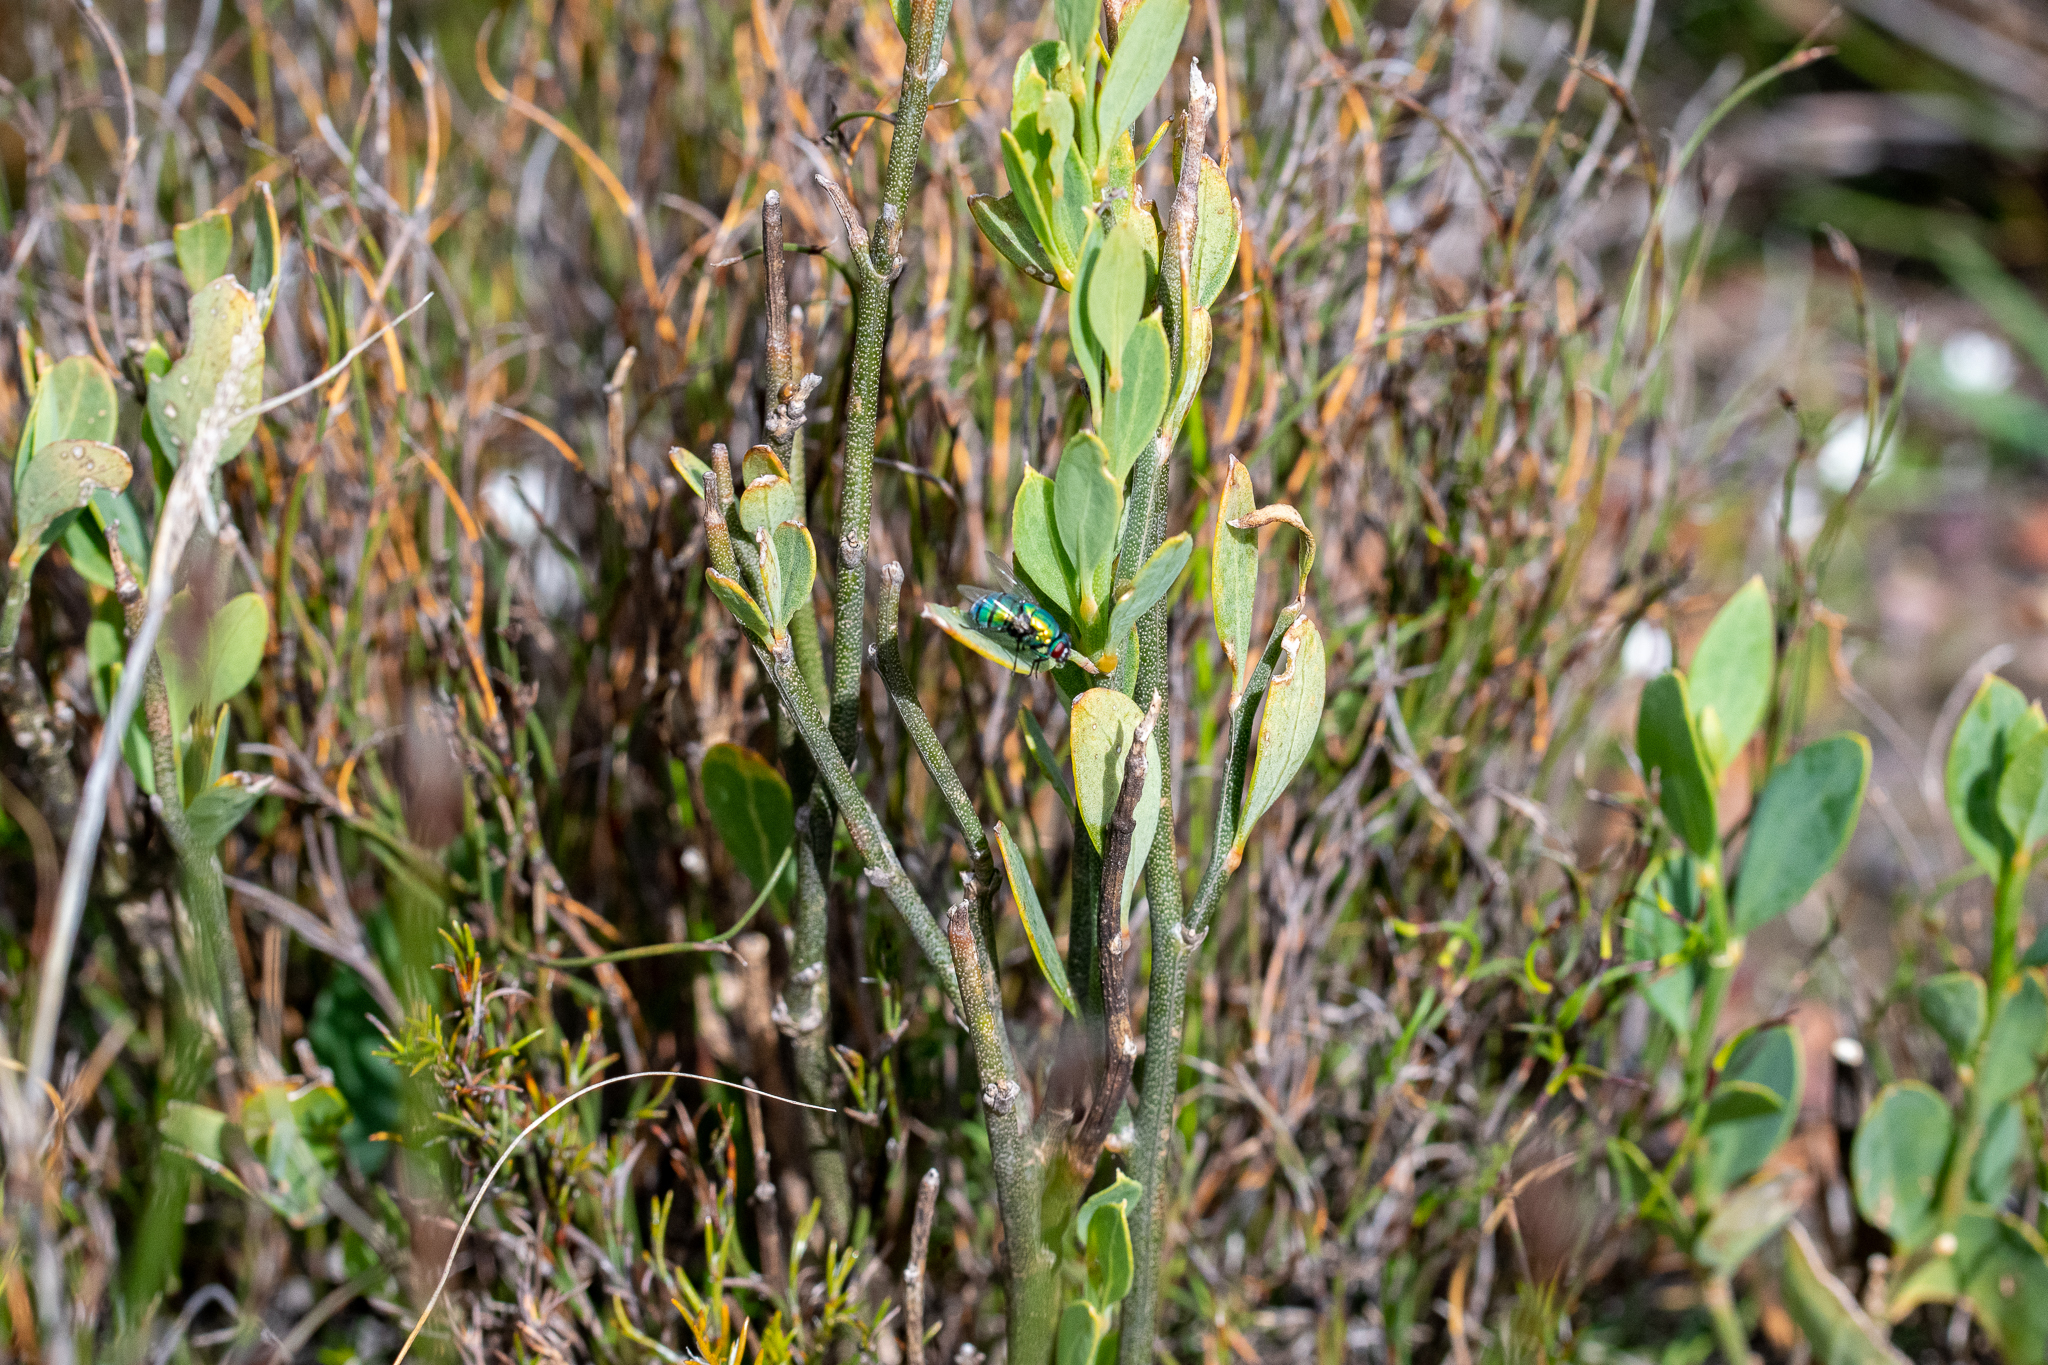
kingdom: Plantae
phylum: Tracheophyta
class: Magnoliopsida
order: Solanales
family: Montiniaceae
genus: Montinia
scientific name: Montinia caryophyllacea
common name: Wild clove-bush
